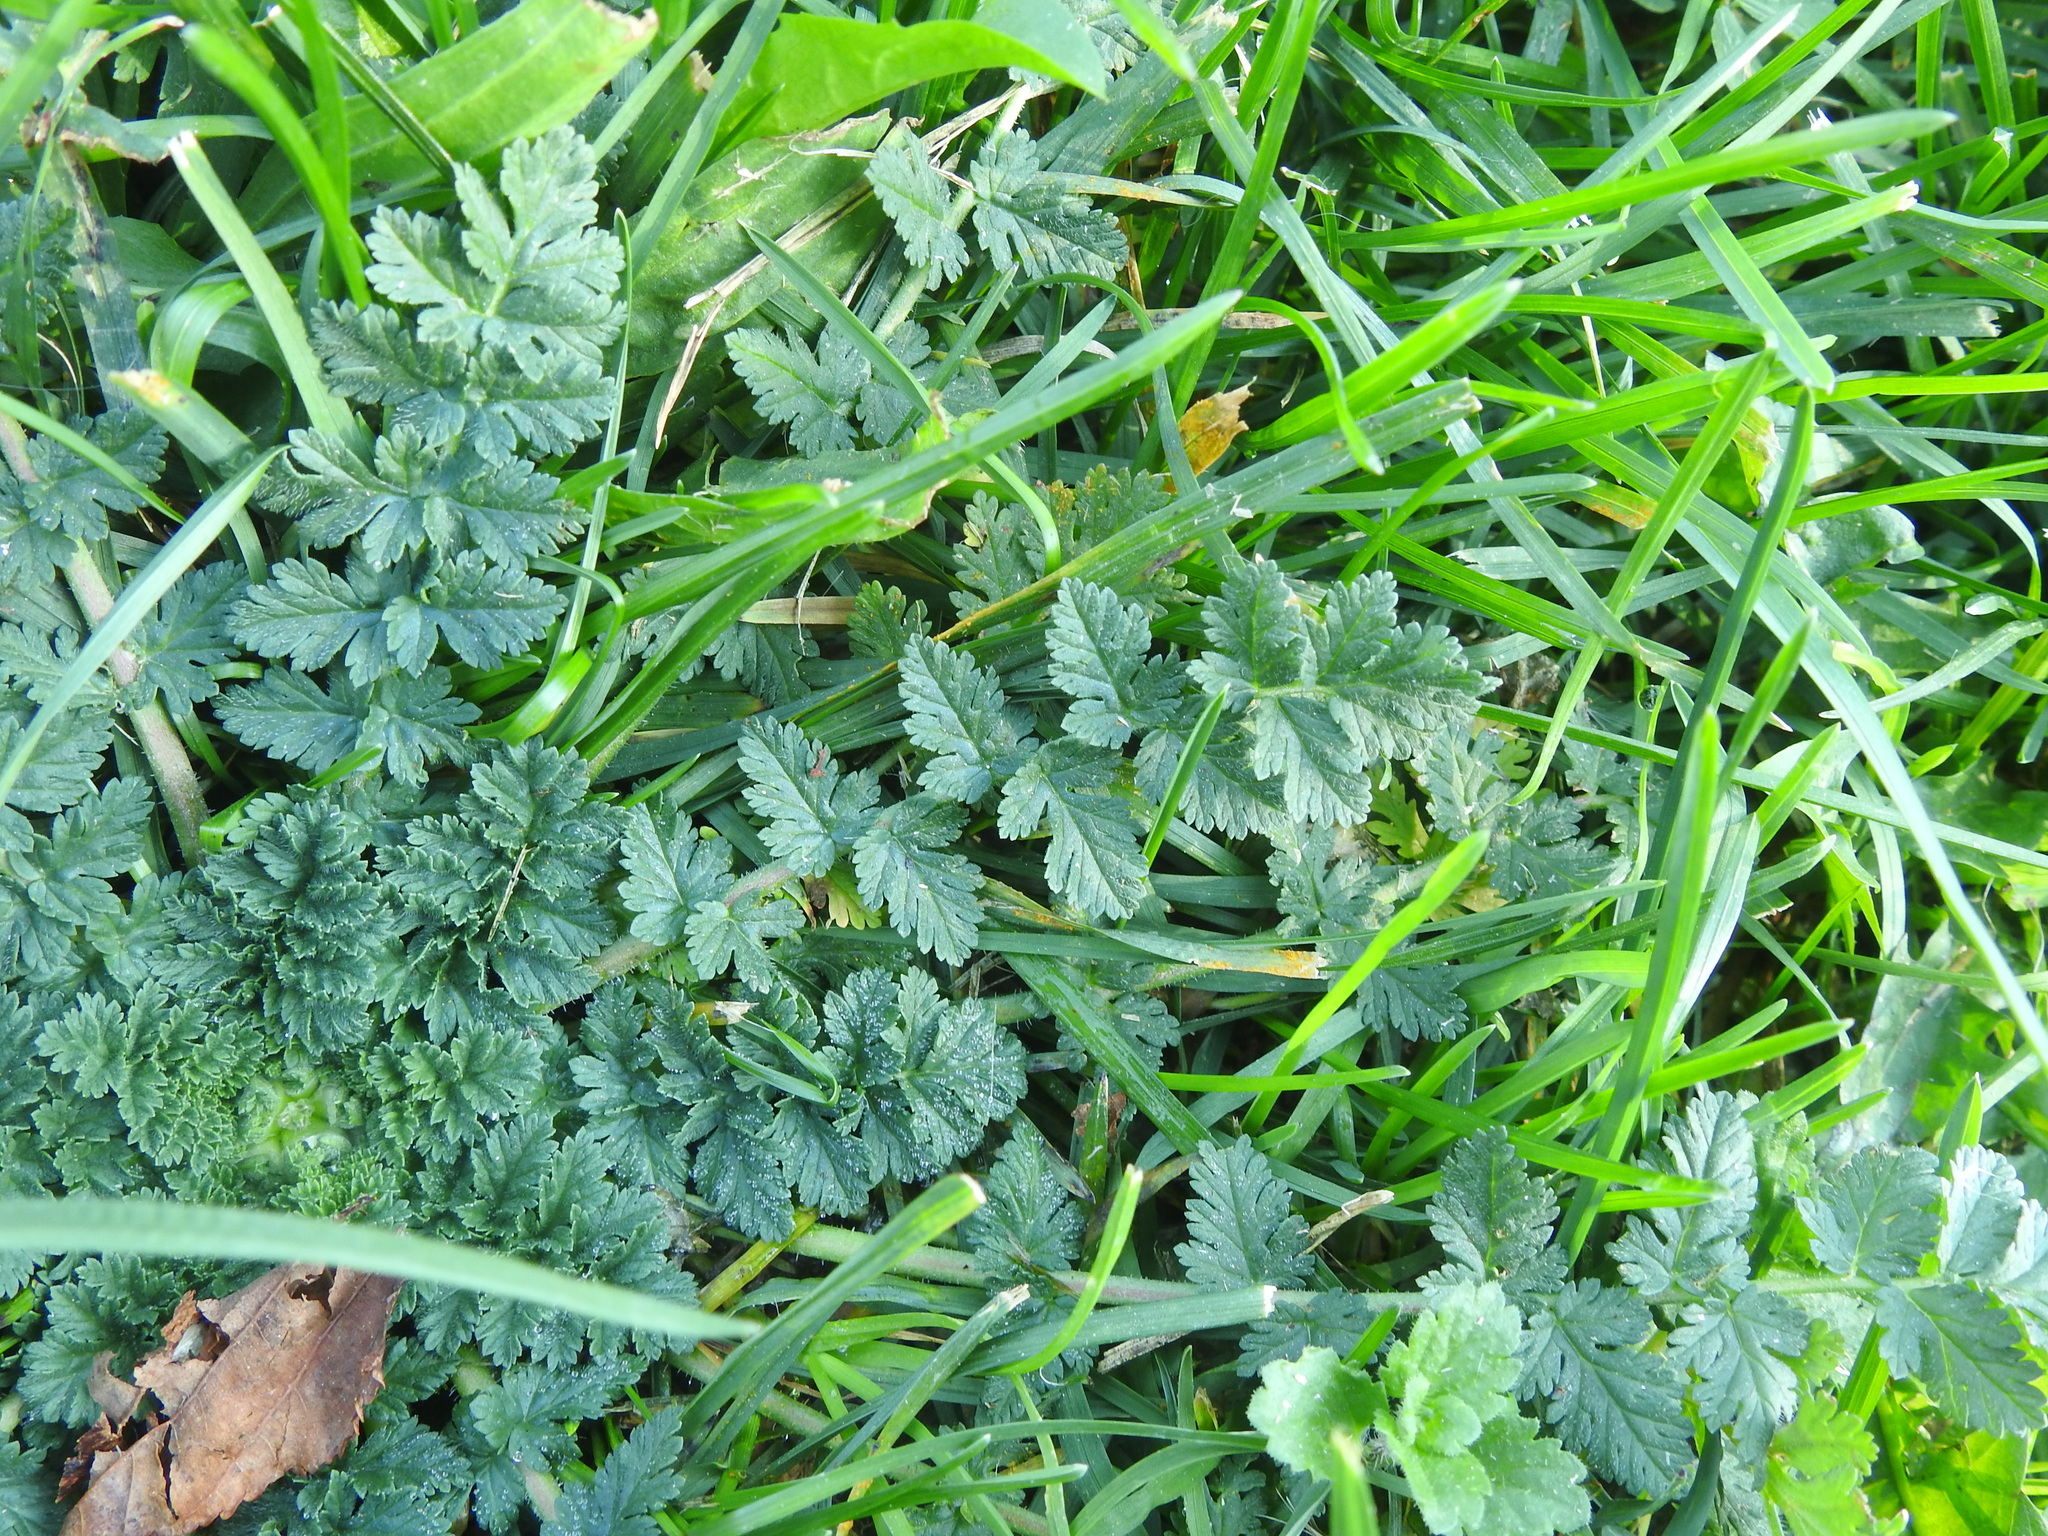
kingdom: Plantae
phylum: Tracheophyta
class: Magnoliopsida
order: Geraniales
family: Geraniaceae
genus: Erodium
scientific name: Erodium cicutarium
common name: Common stork's-bill
